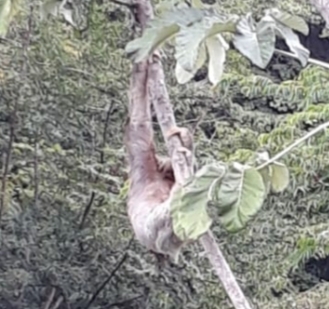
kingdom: Animalia
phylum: Chordata
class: Mammalia
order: Pilosa
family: Bradypodidae
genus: Bradypus
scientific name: Bradypus variegatus
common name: Brown-throated three-toed sloth
